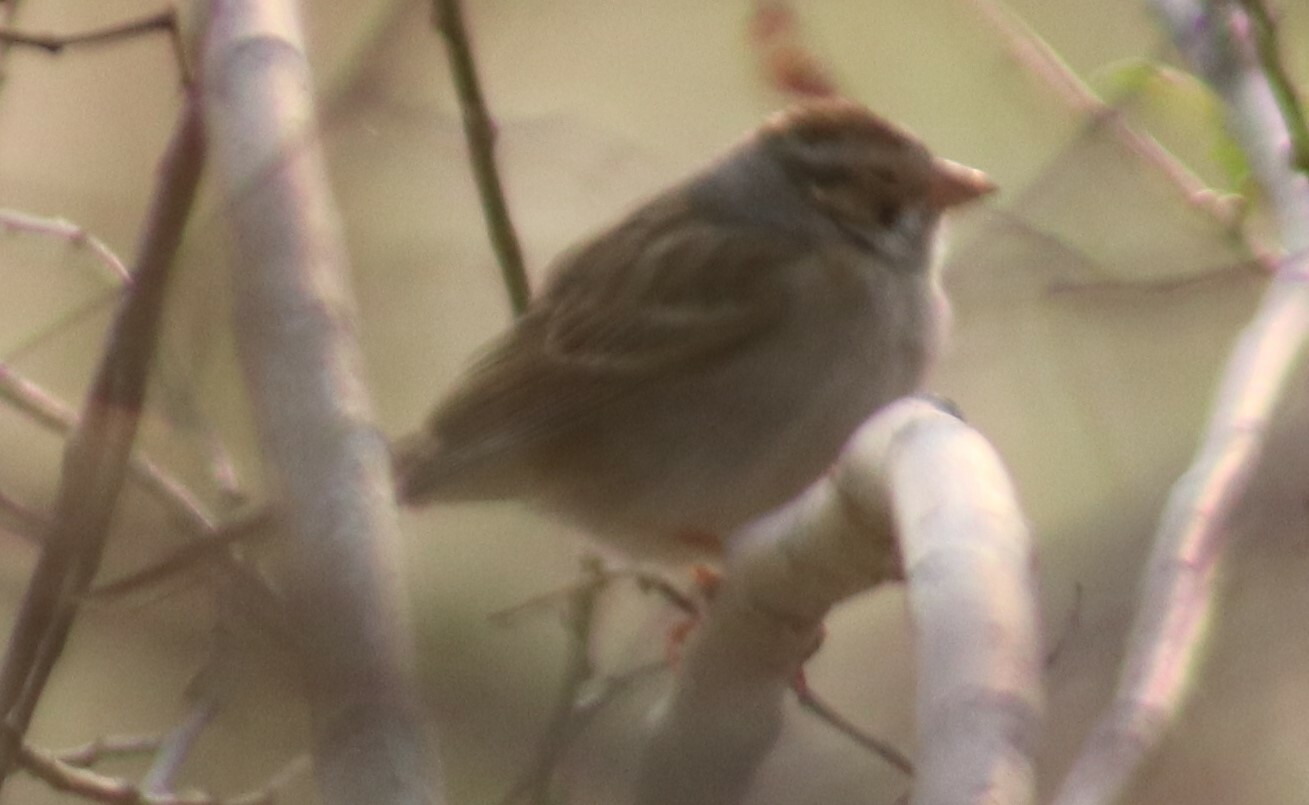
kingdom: Animalia
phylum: Chordata
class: Aves
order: Passeriformes
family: Passerellidae
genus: Spizella
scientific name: Spizella pallida
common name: Clay-colored sparrow
